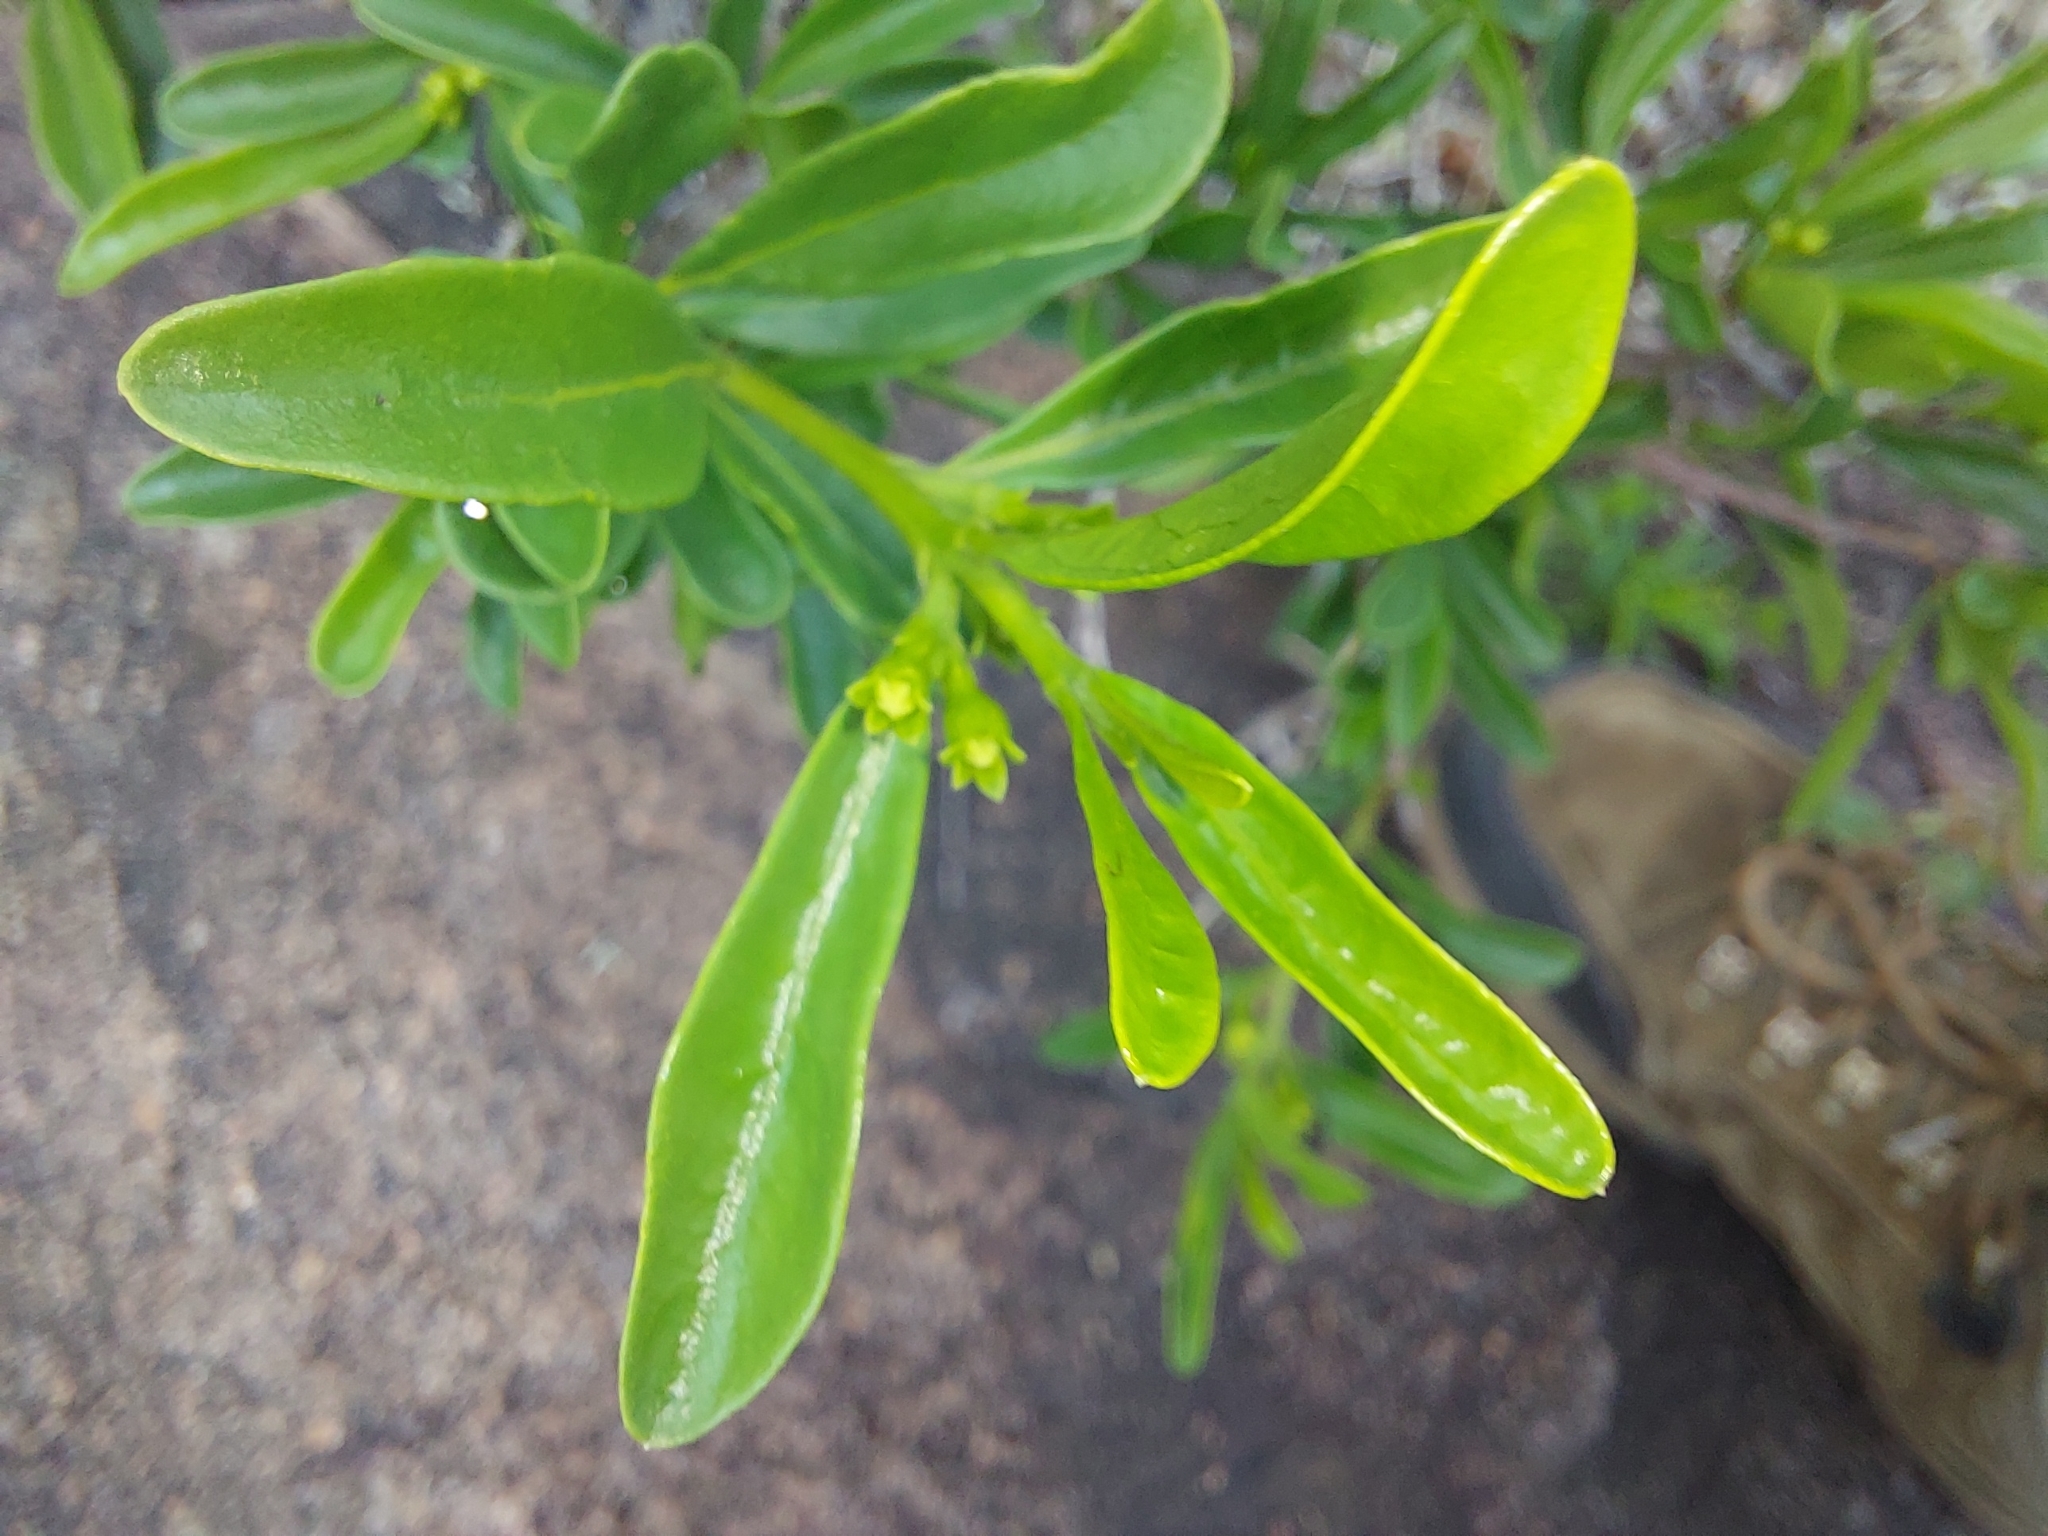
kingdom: Plantae
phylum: Tracheophyta
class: Magnoliopsida
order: Sapindales
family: Meliaceae
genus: Turraea
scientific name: Turraea obtusifolia
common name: Small honeysuckle tree
